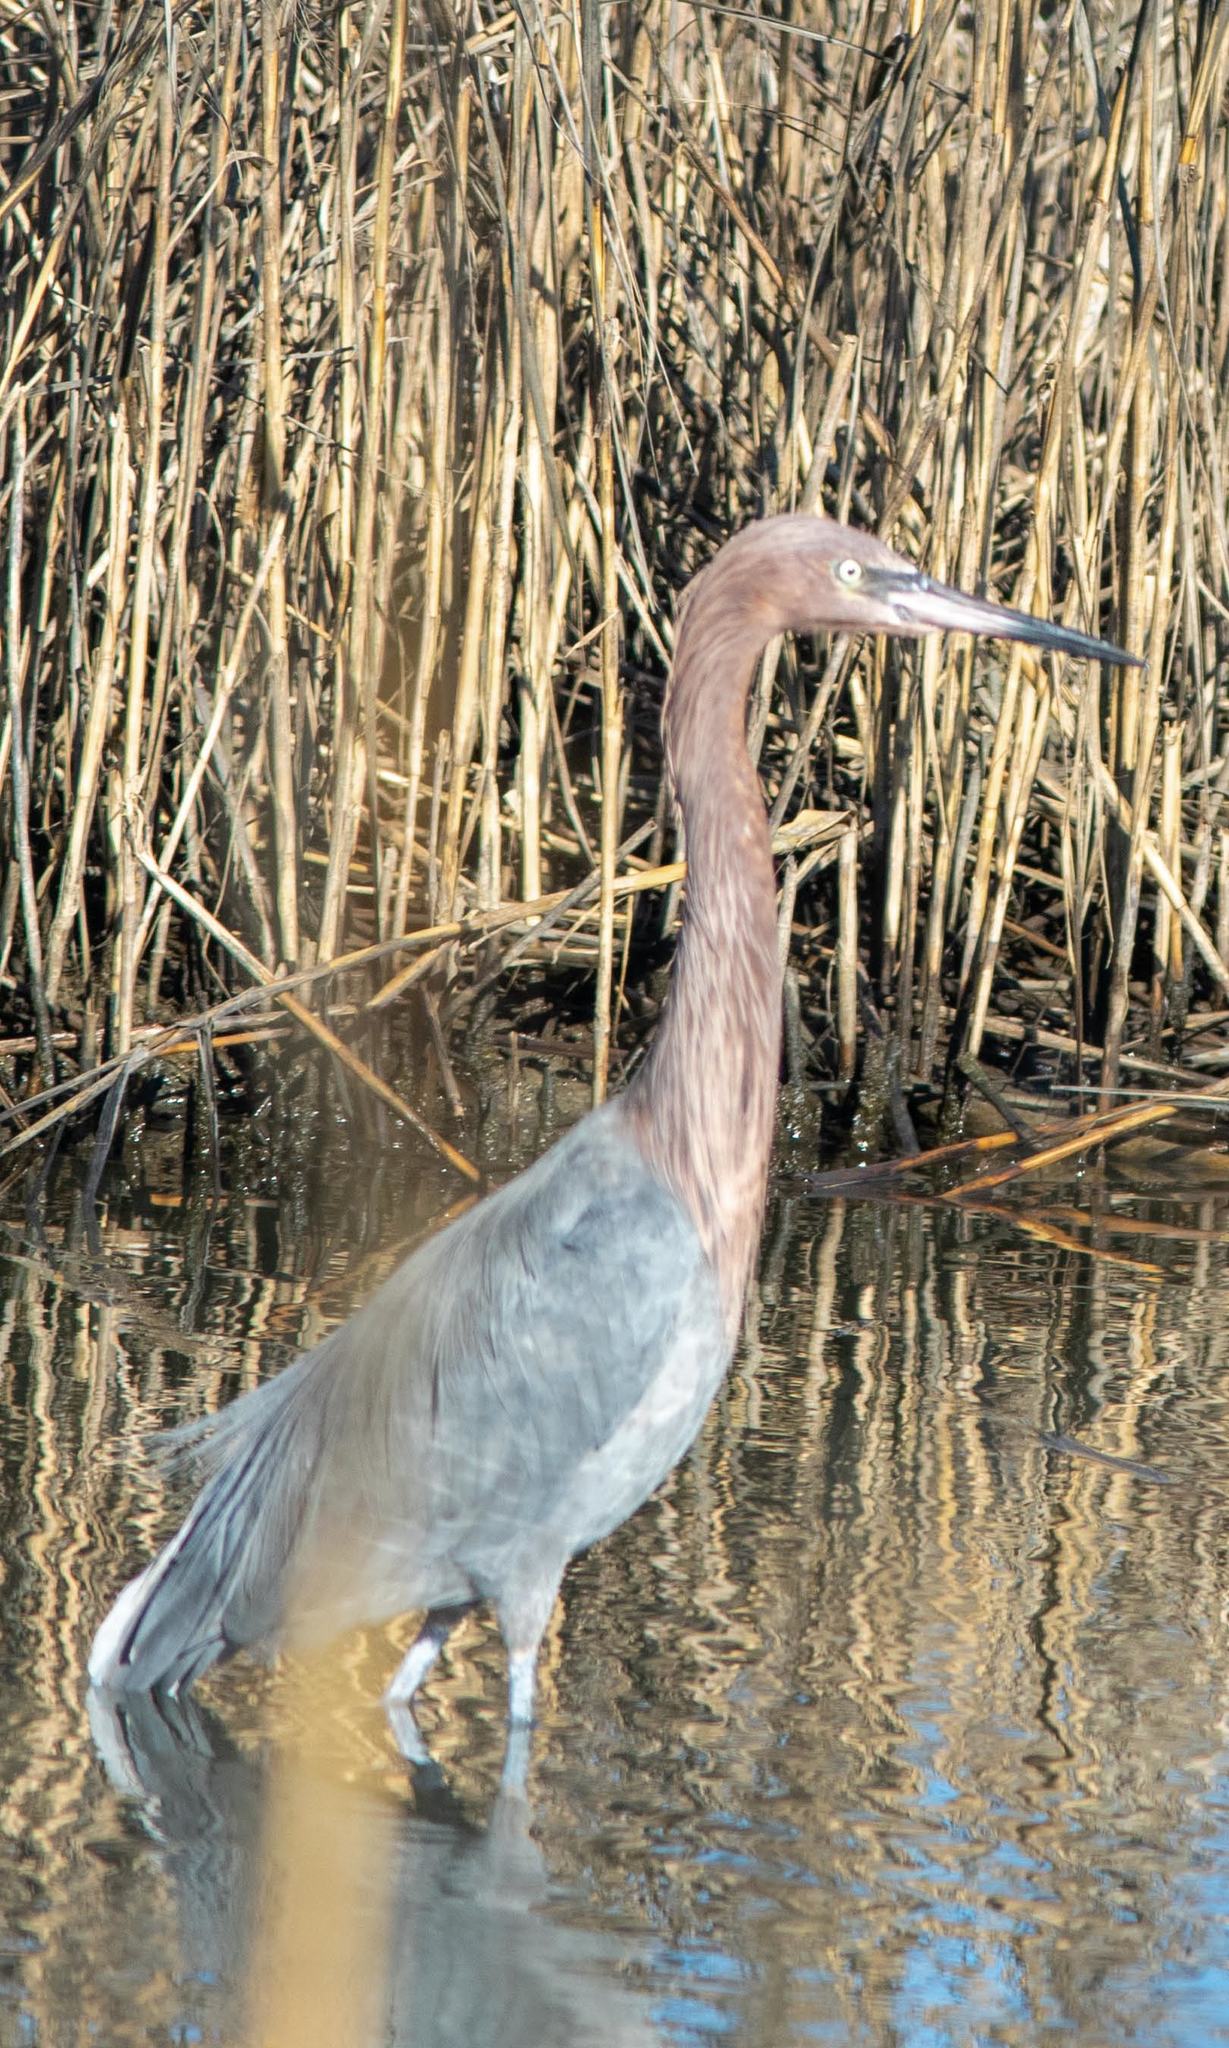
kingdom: Animalia
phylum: Chordata
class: Aves
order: Pelecaniformes
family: Ardeidae
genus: Egretta
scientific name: Egretta rufescens
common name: Reddish egret
